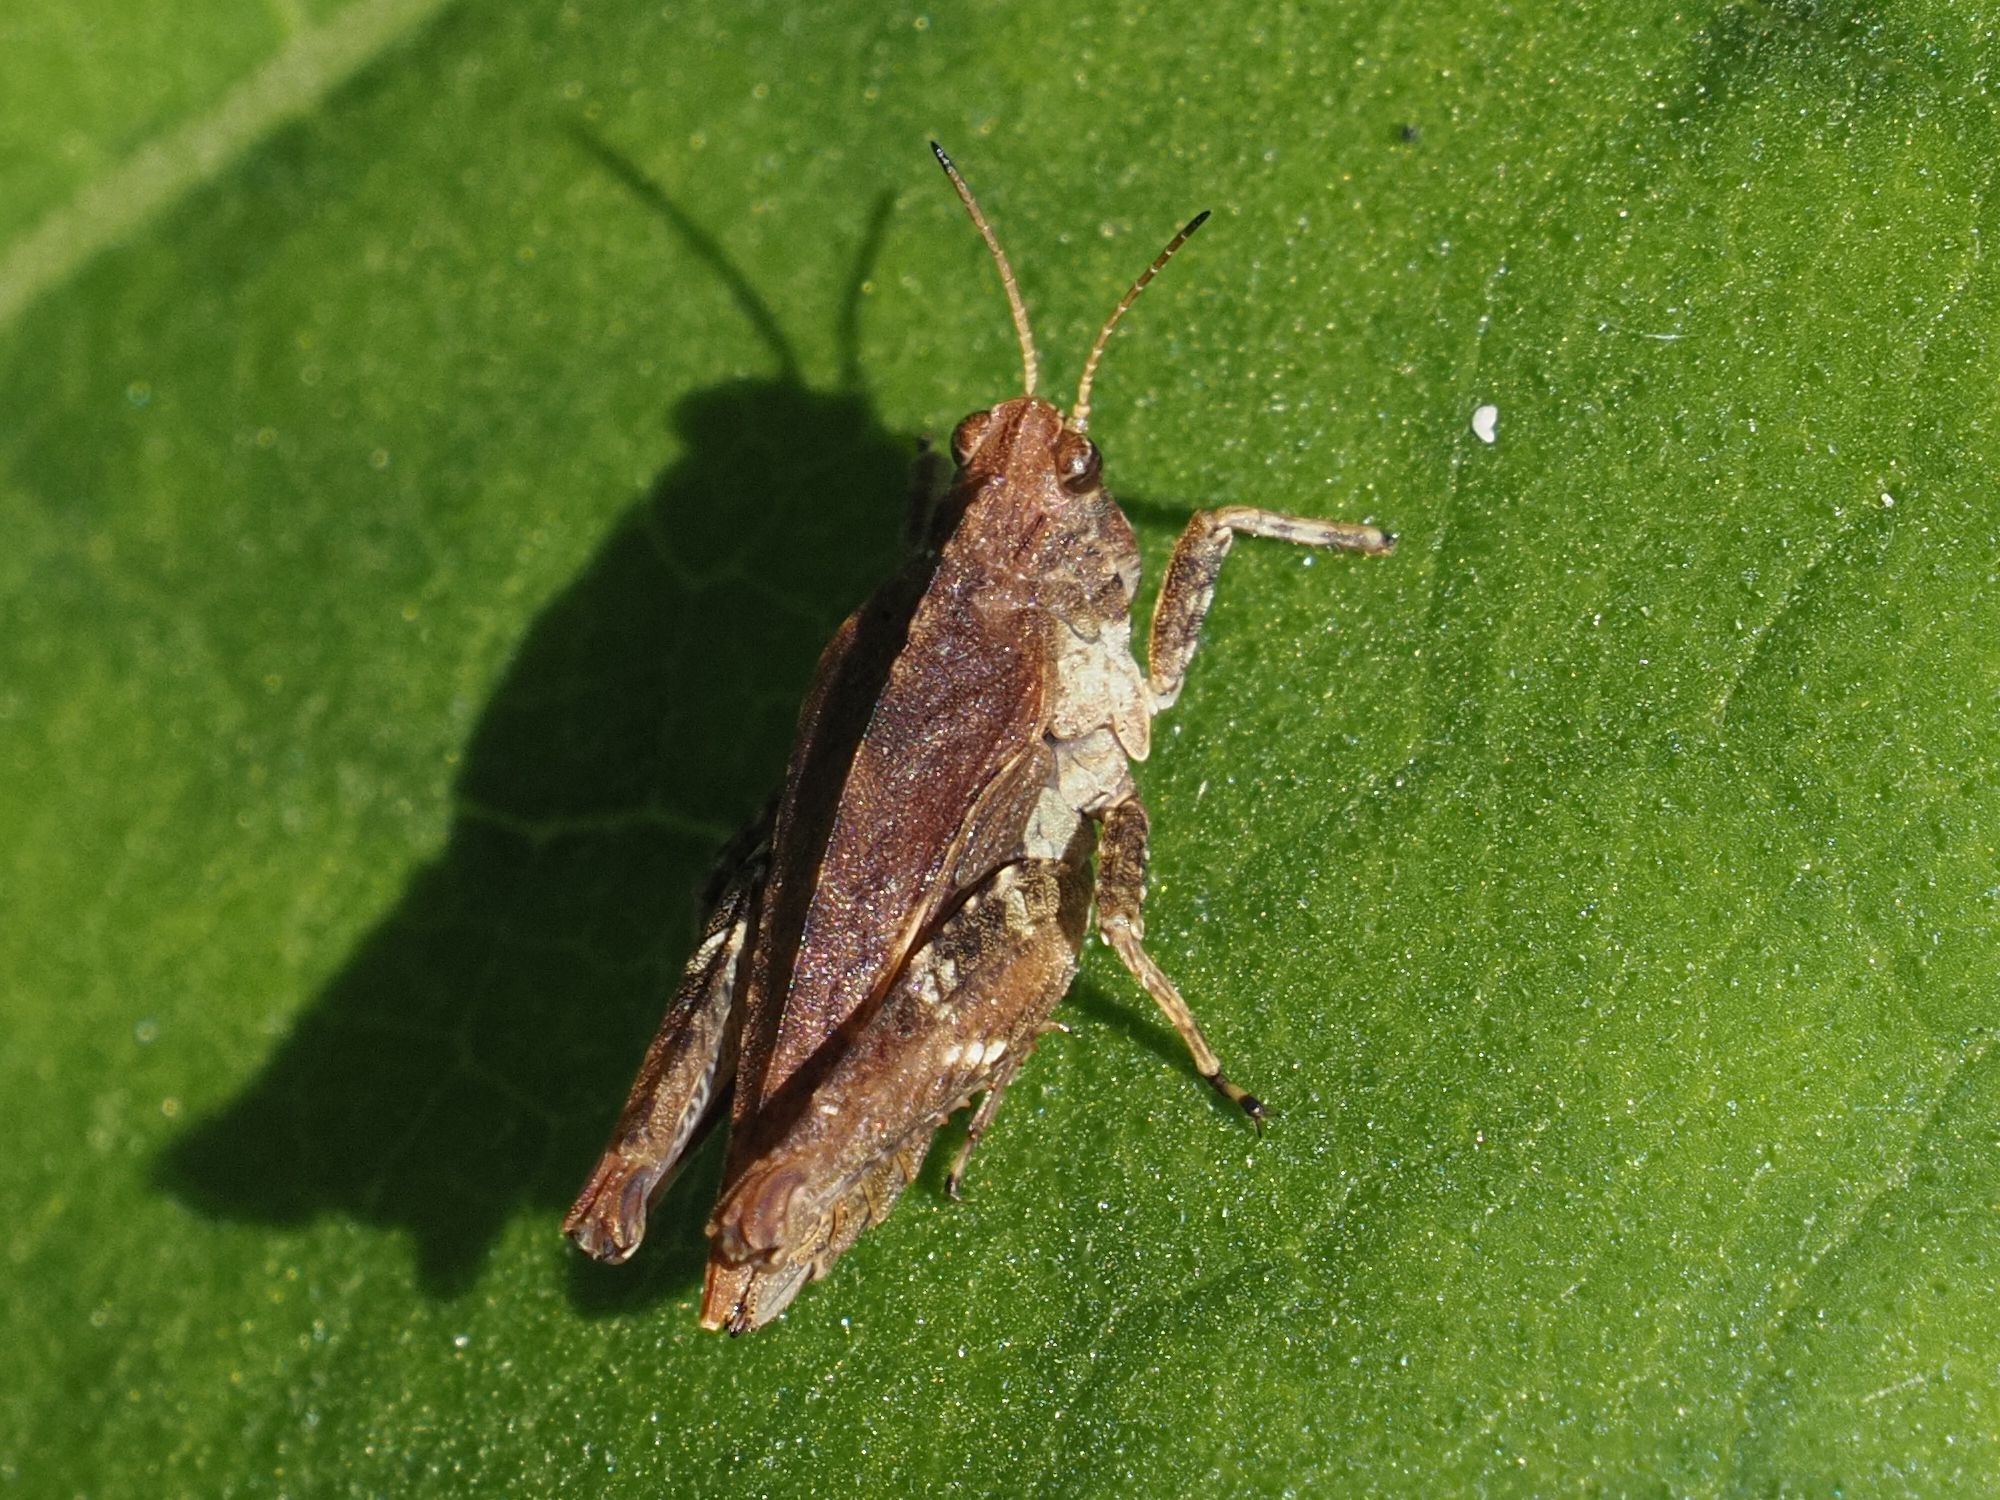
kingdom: Animalia
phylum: Arthropoda
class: Insecta
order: Orthoptera
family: Tetrigidae
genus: Tetrix
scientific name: Tetrix undulata
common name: Common groundhopper
